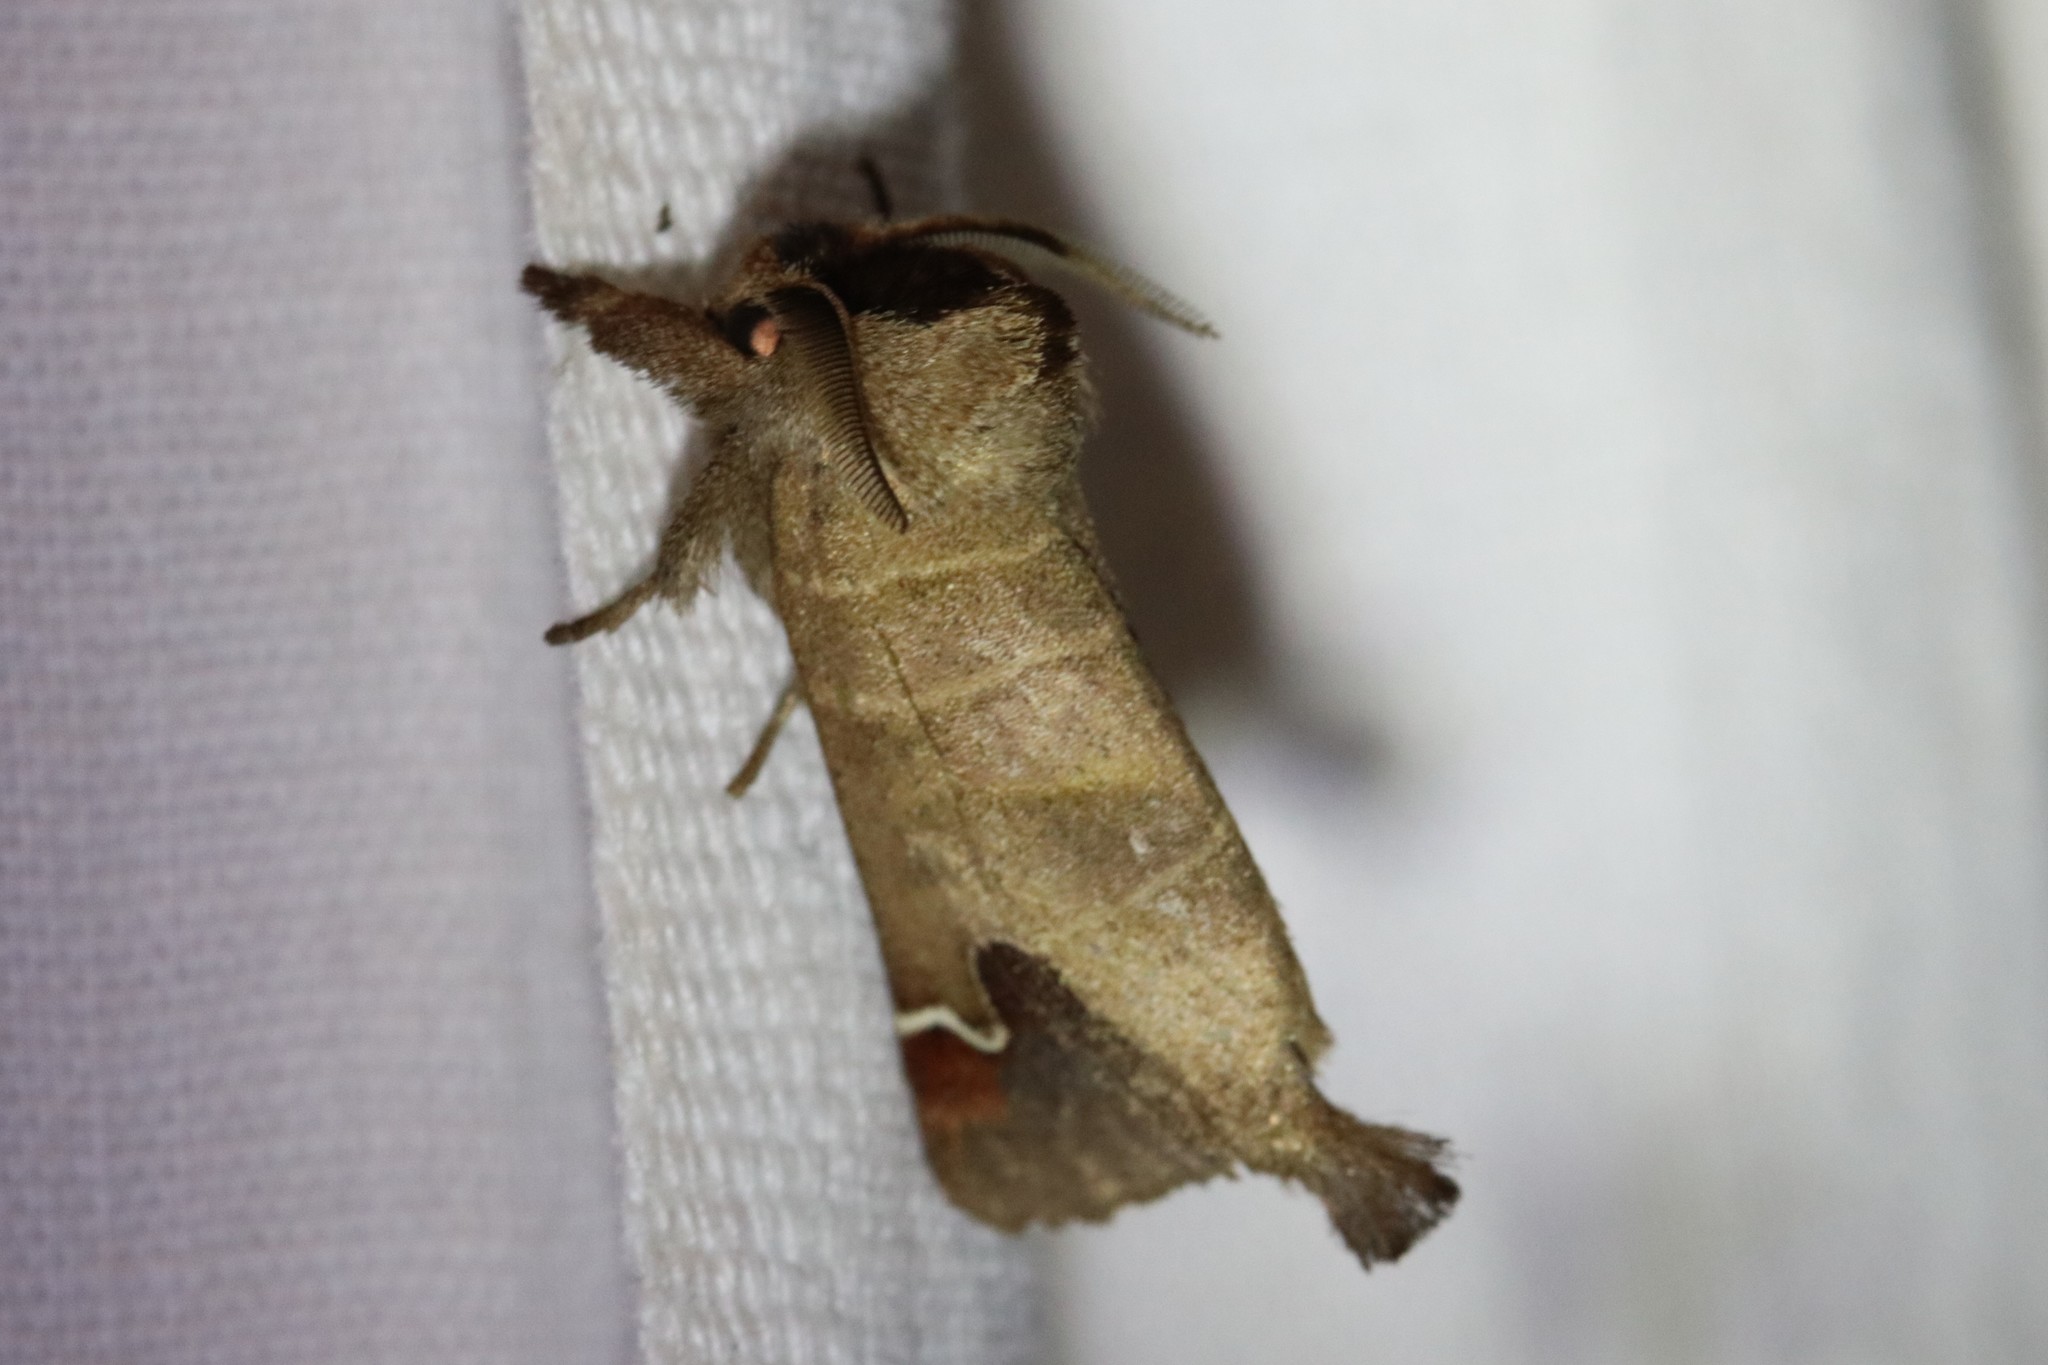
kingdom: Animalia
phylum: Arthropoda
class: Insecta
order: Lepidoptera
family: Notodontidae
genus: Clostera
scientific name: Clostera albosigma
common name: Sigmoid prominent
